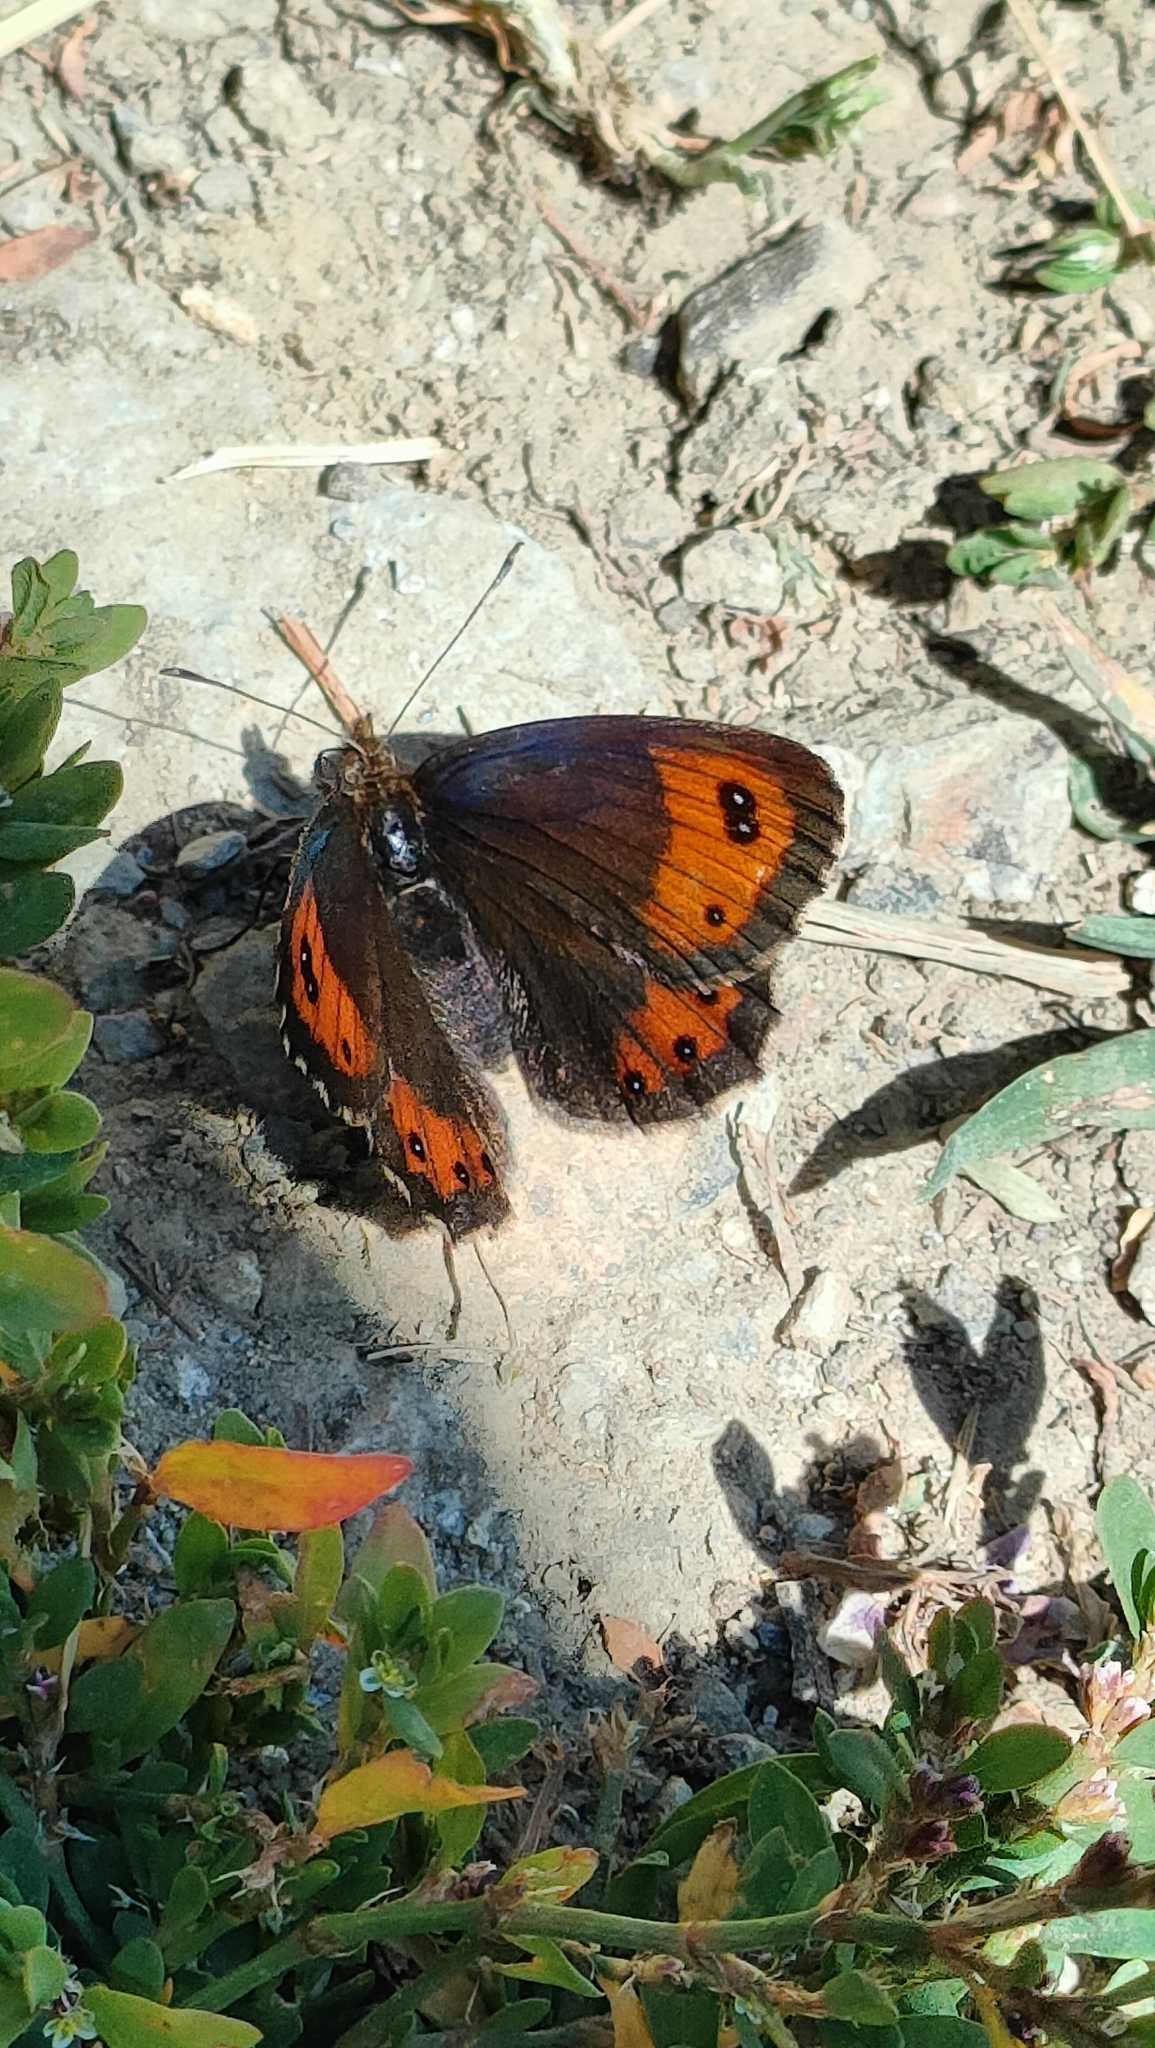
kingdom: Animalia
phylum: Arthropoda
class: Insecta
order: Lepidoptera
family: Nymphalidae
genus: Erebia
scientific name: Erebia montanus
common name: Marbled ringlet
